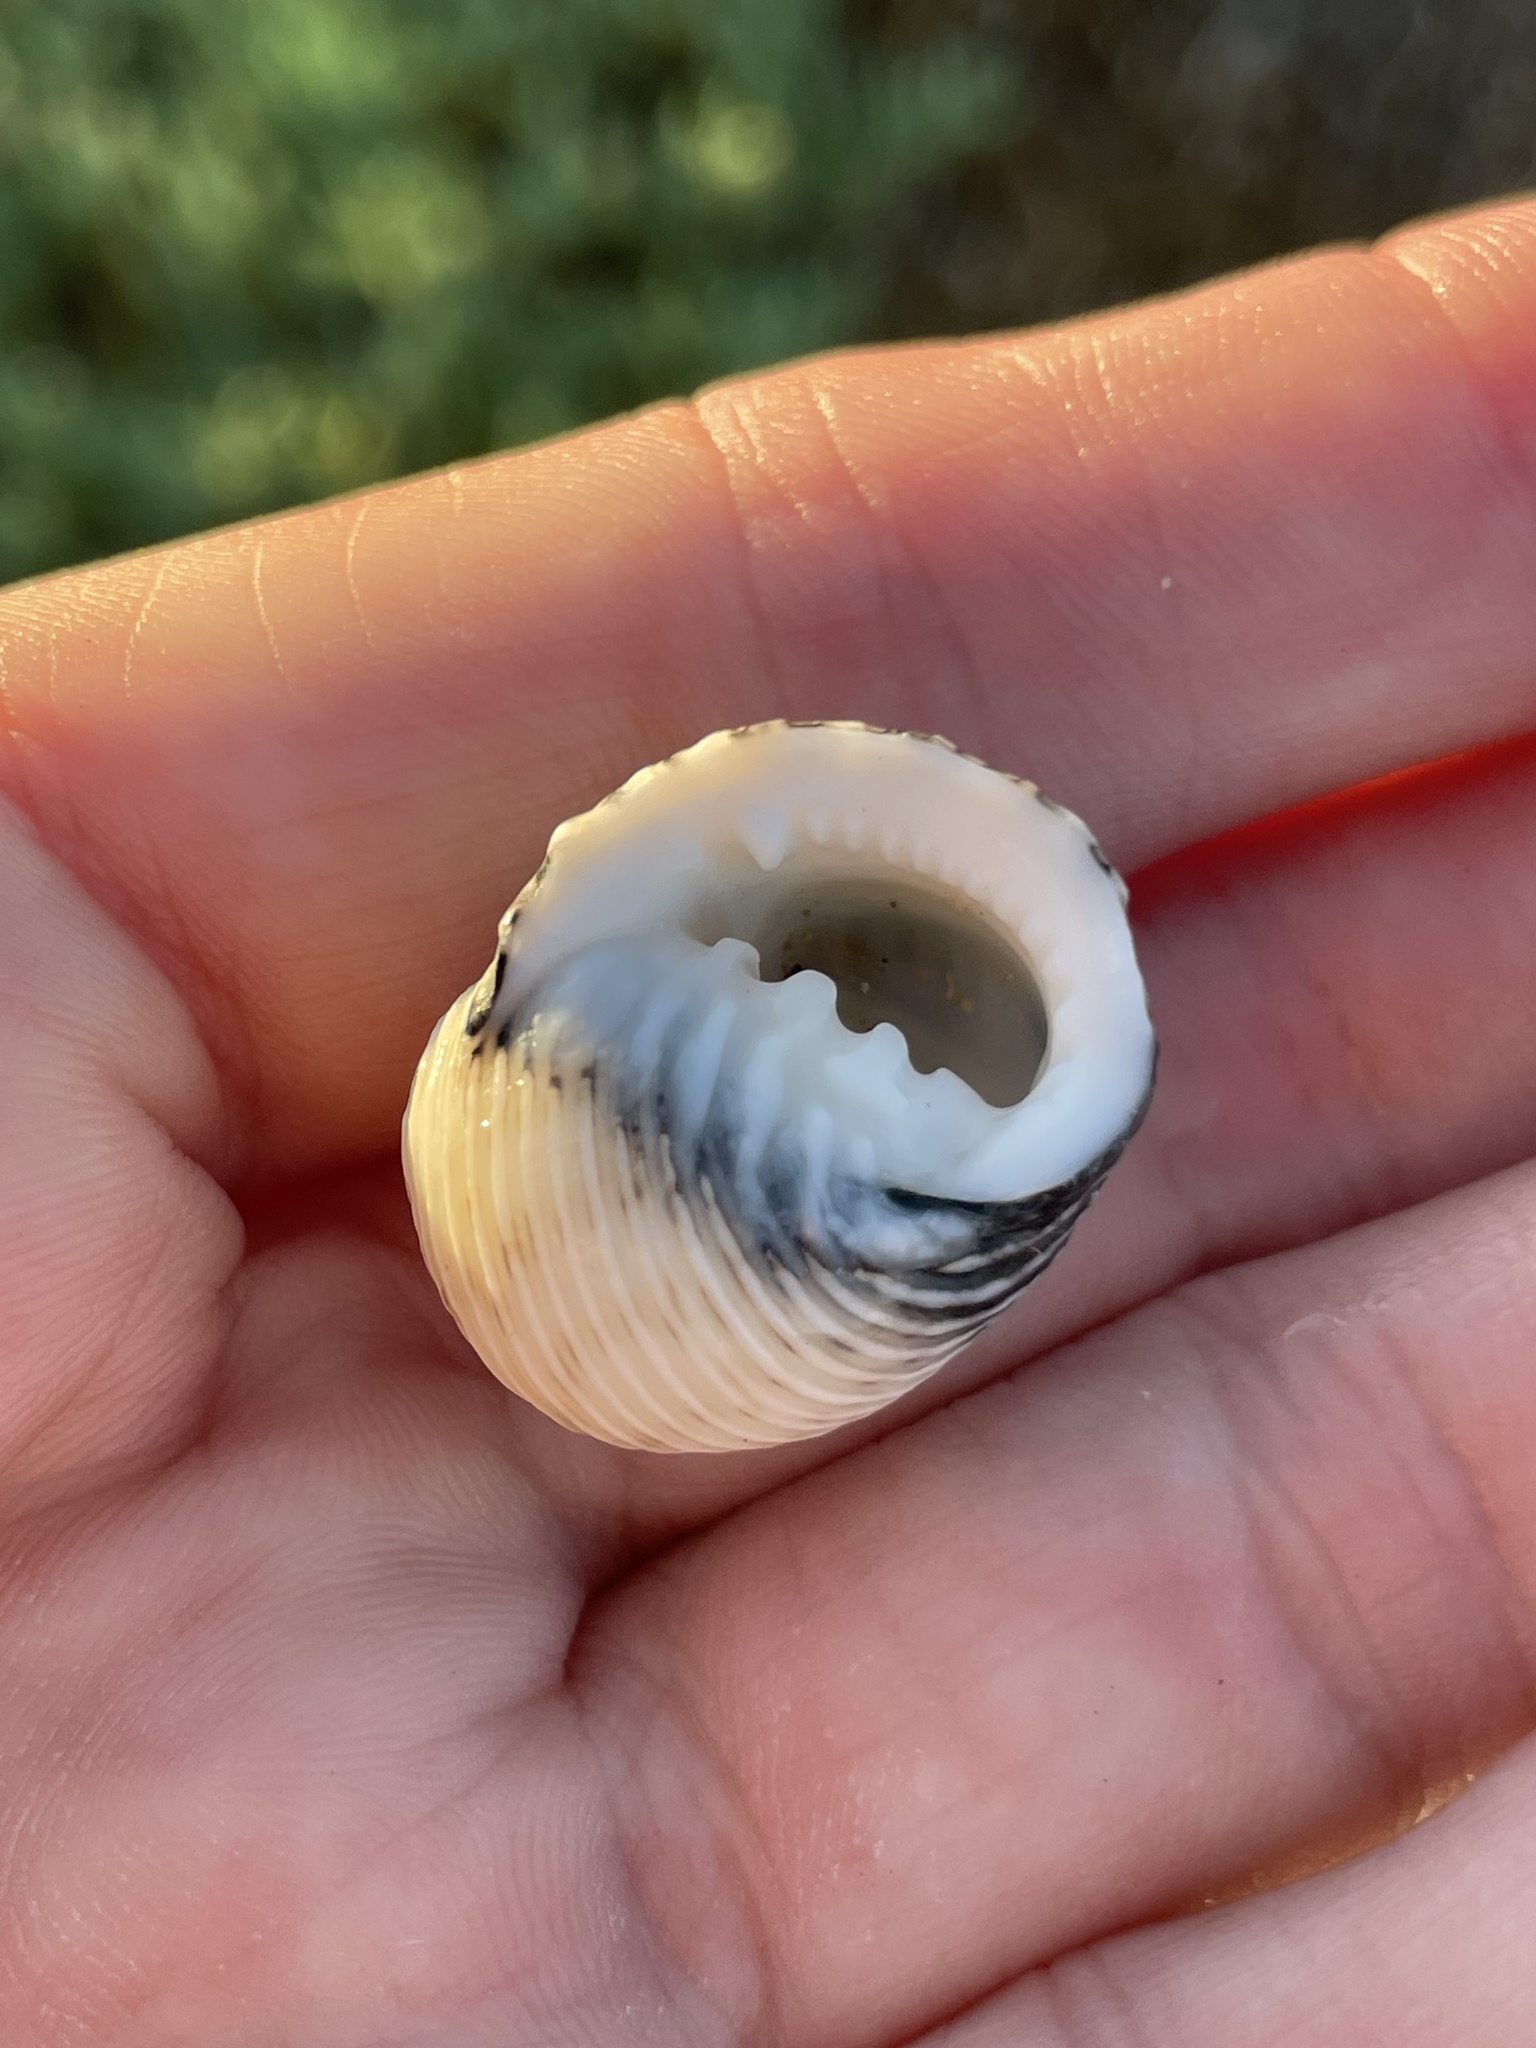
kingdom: Animalia
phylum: Mollusca
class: Gastropoda
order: Cycloneritida
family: Neritidae
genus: Nerita
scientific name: Nerita scabricosta
